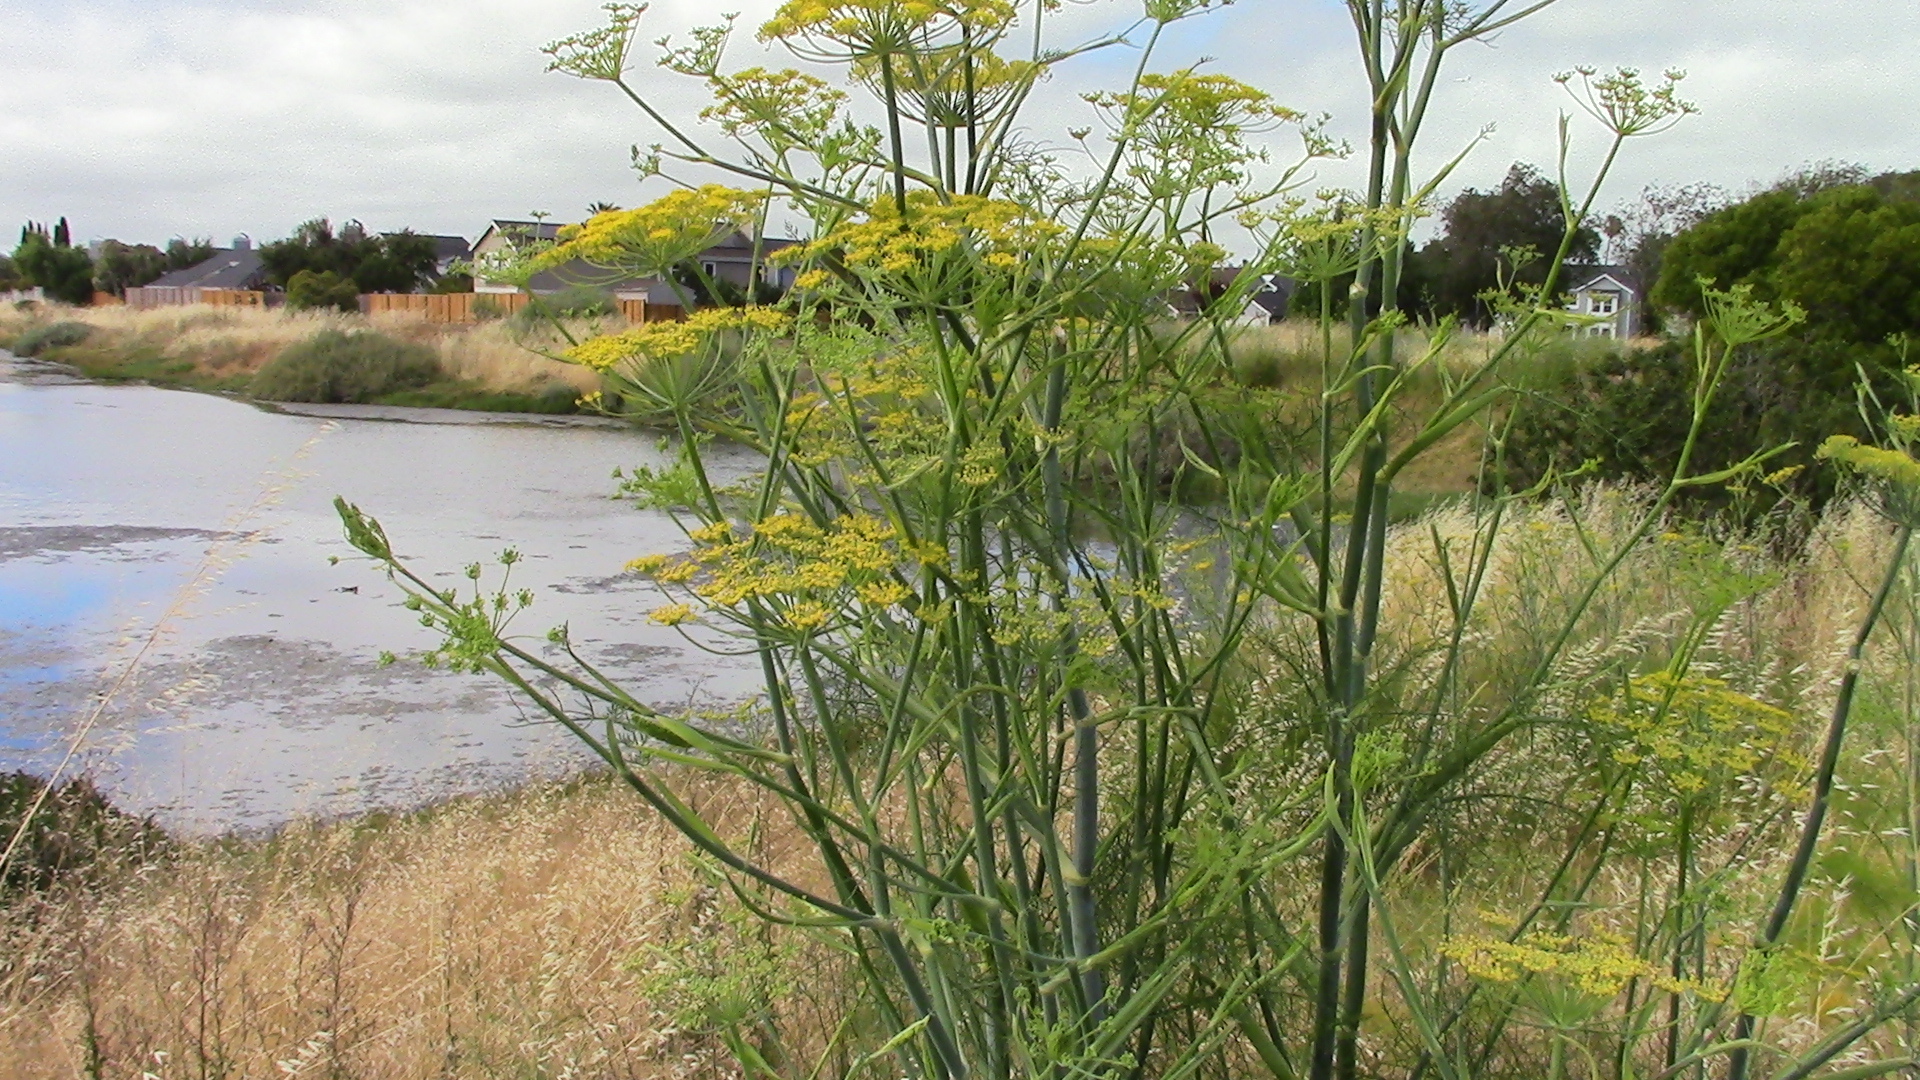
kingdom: Plantae
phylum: Tracheophyta
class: Magnoliopsida
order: Apiales
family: Apiaceae
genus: Foeniculum
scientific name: Foeniculum vulgare
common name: Fennel
